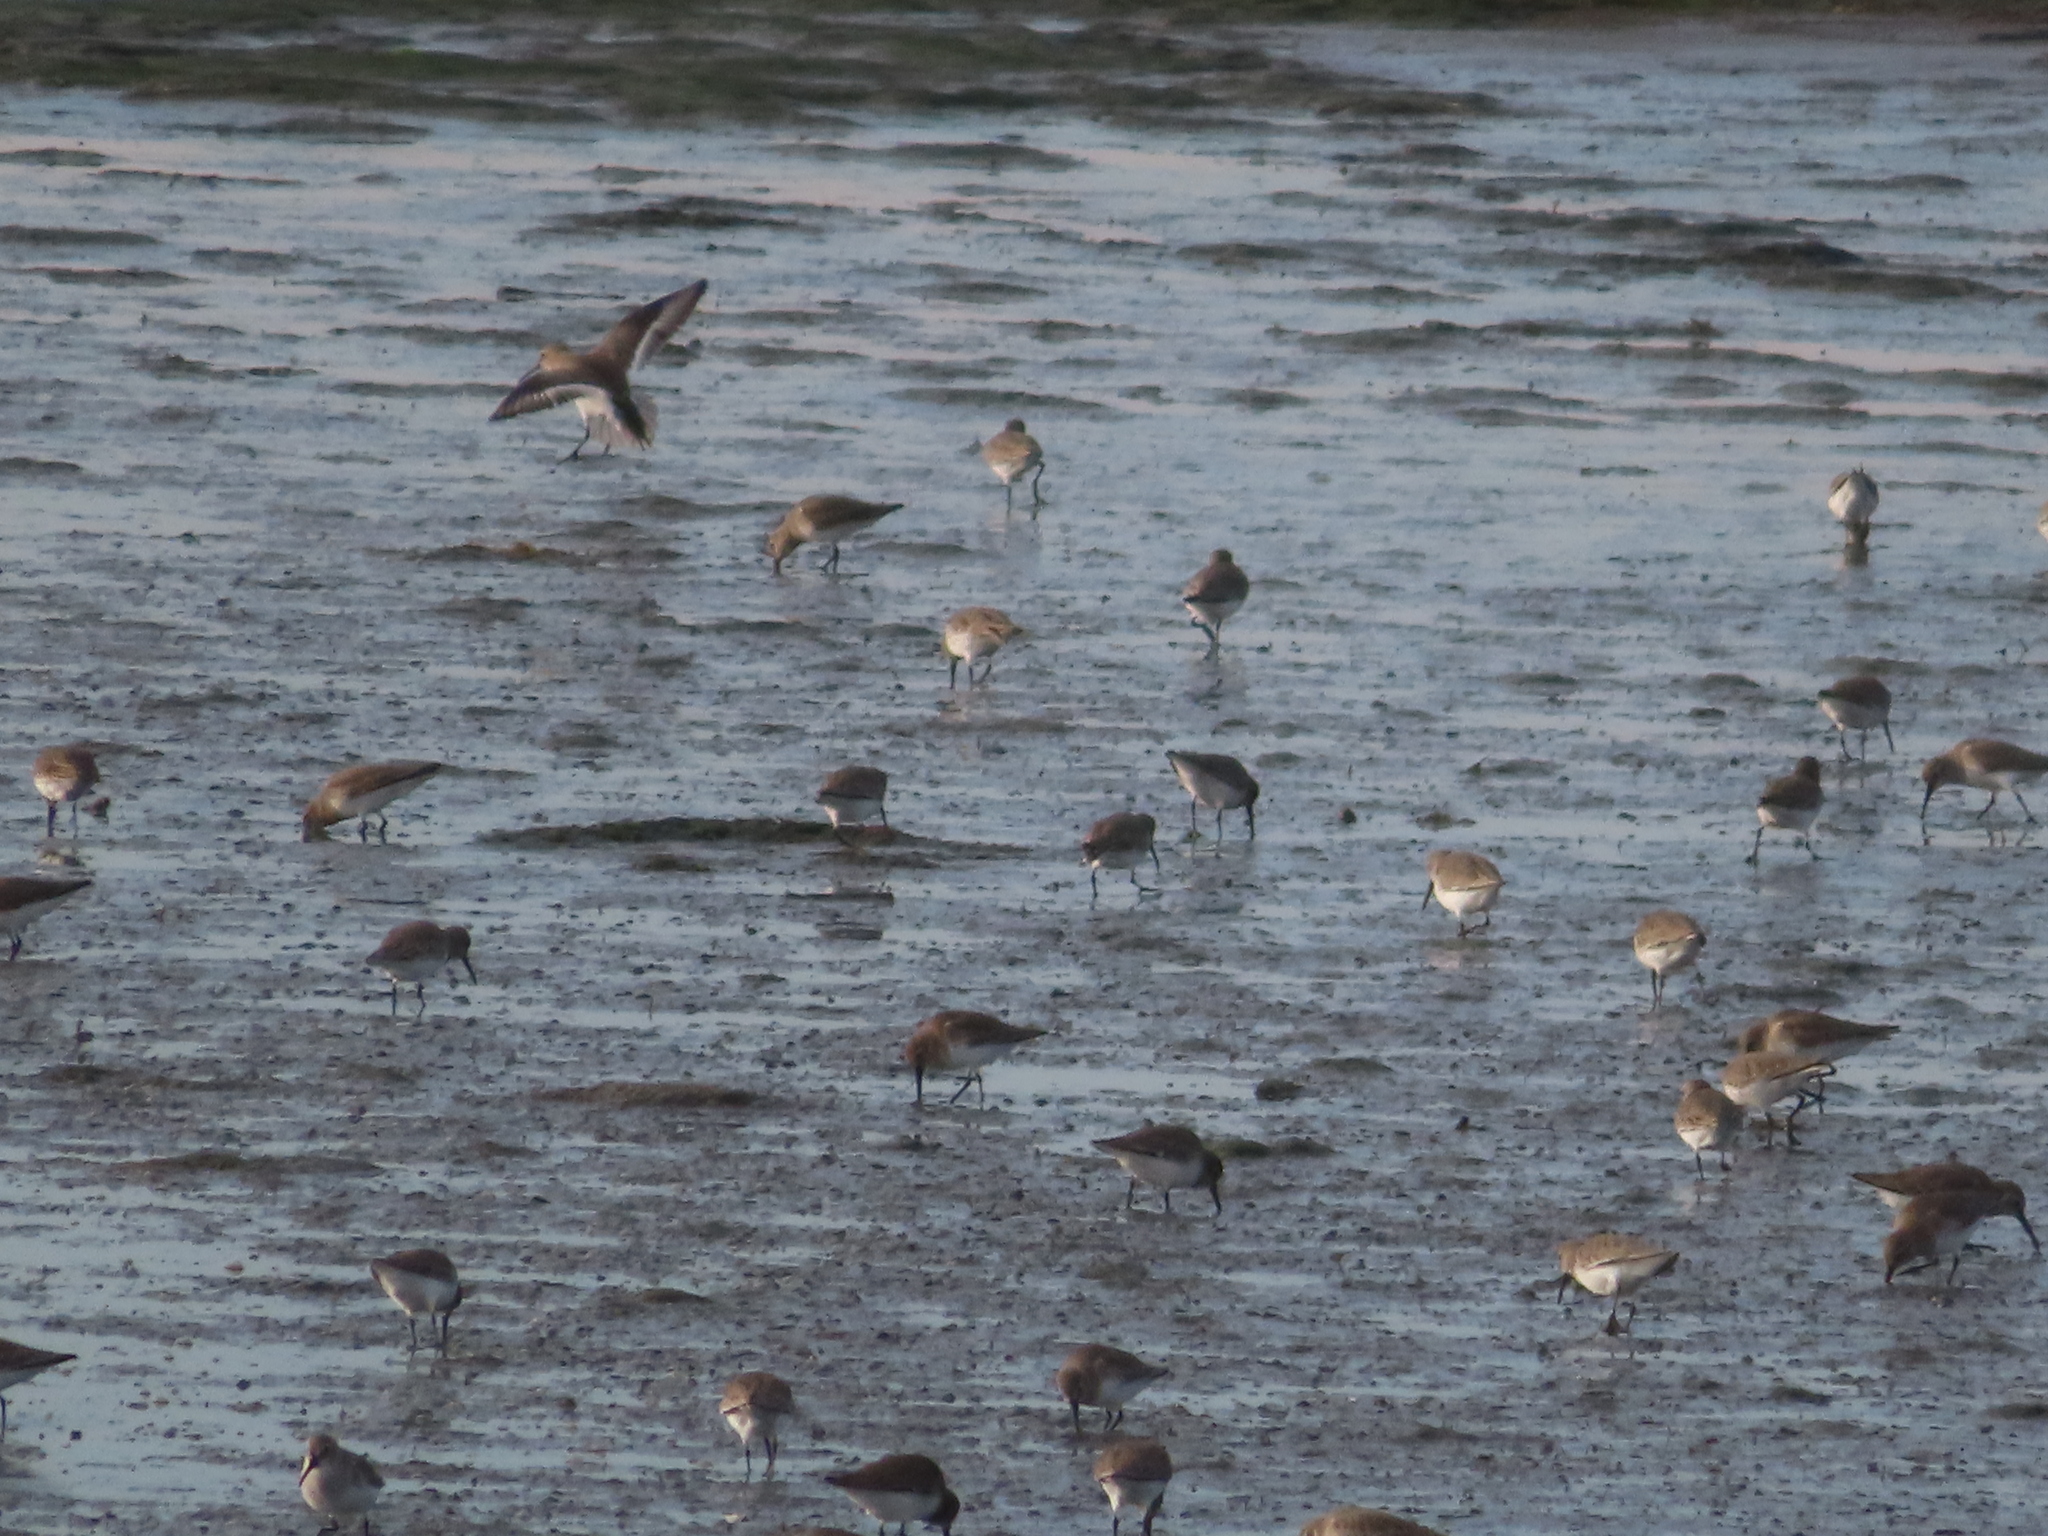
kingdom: Animalia
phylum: Chordata
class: Aves
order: Charadriiformes
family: Scolopacidae
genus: Calidris
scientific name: Calidris alpina
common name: Dunlin
